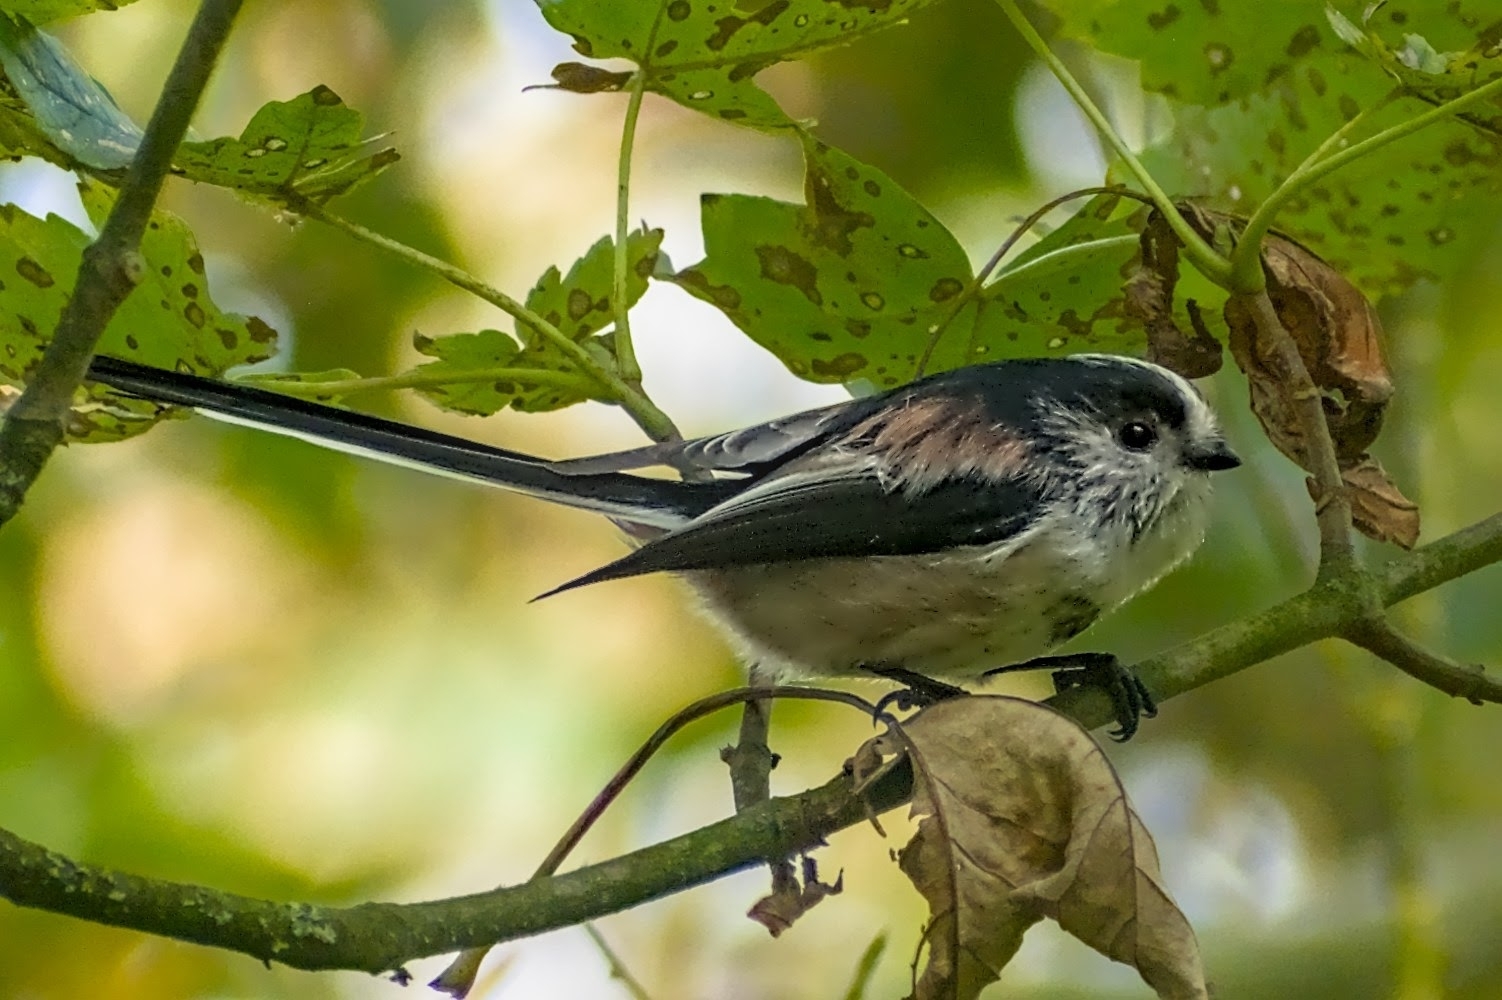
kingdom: Animalia
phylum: Chordata
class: Aves
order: Passeriformes
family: Aegithalidae
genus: Aegithalos
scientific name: Aegithalos caudatus
